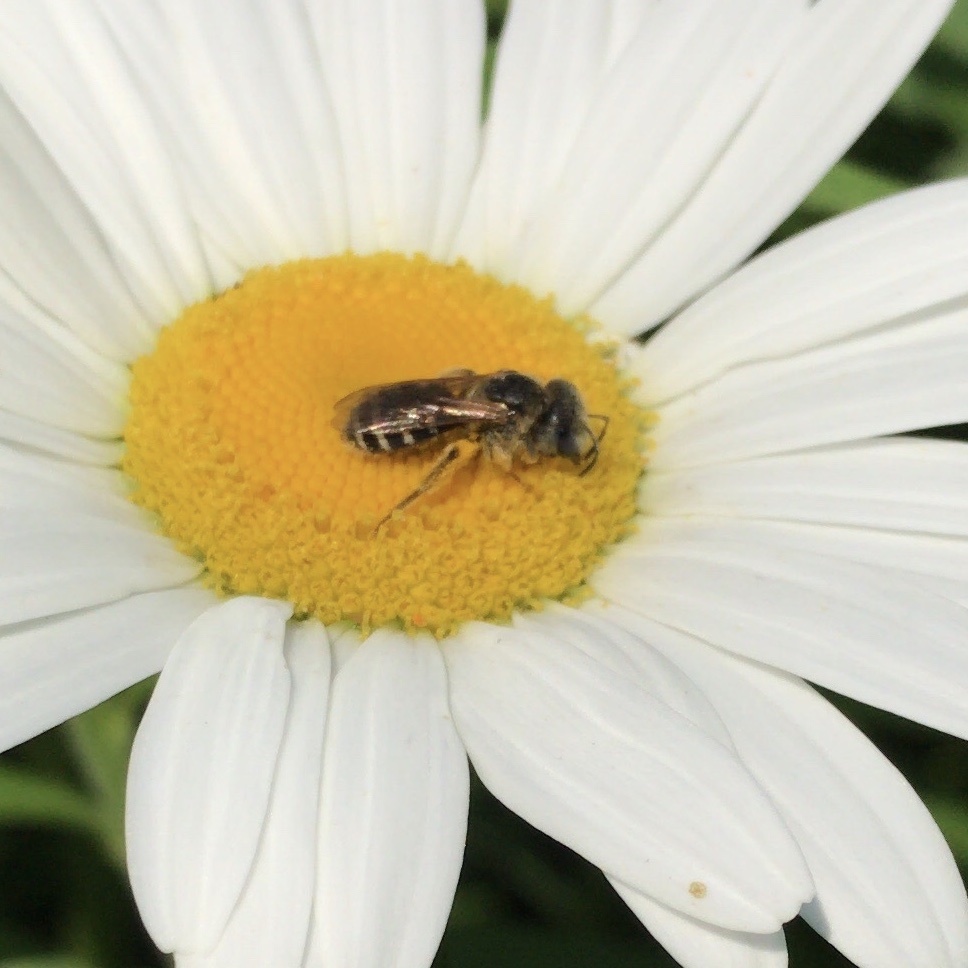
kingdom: Animalia
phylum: Arthropoda
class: Insecta
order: Hymenoptera
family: Halictidae
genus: Halictus
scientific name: Halictus ligatus
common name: Ligated furrow bee
